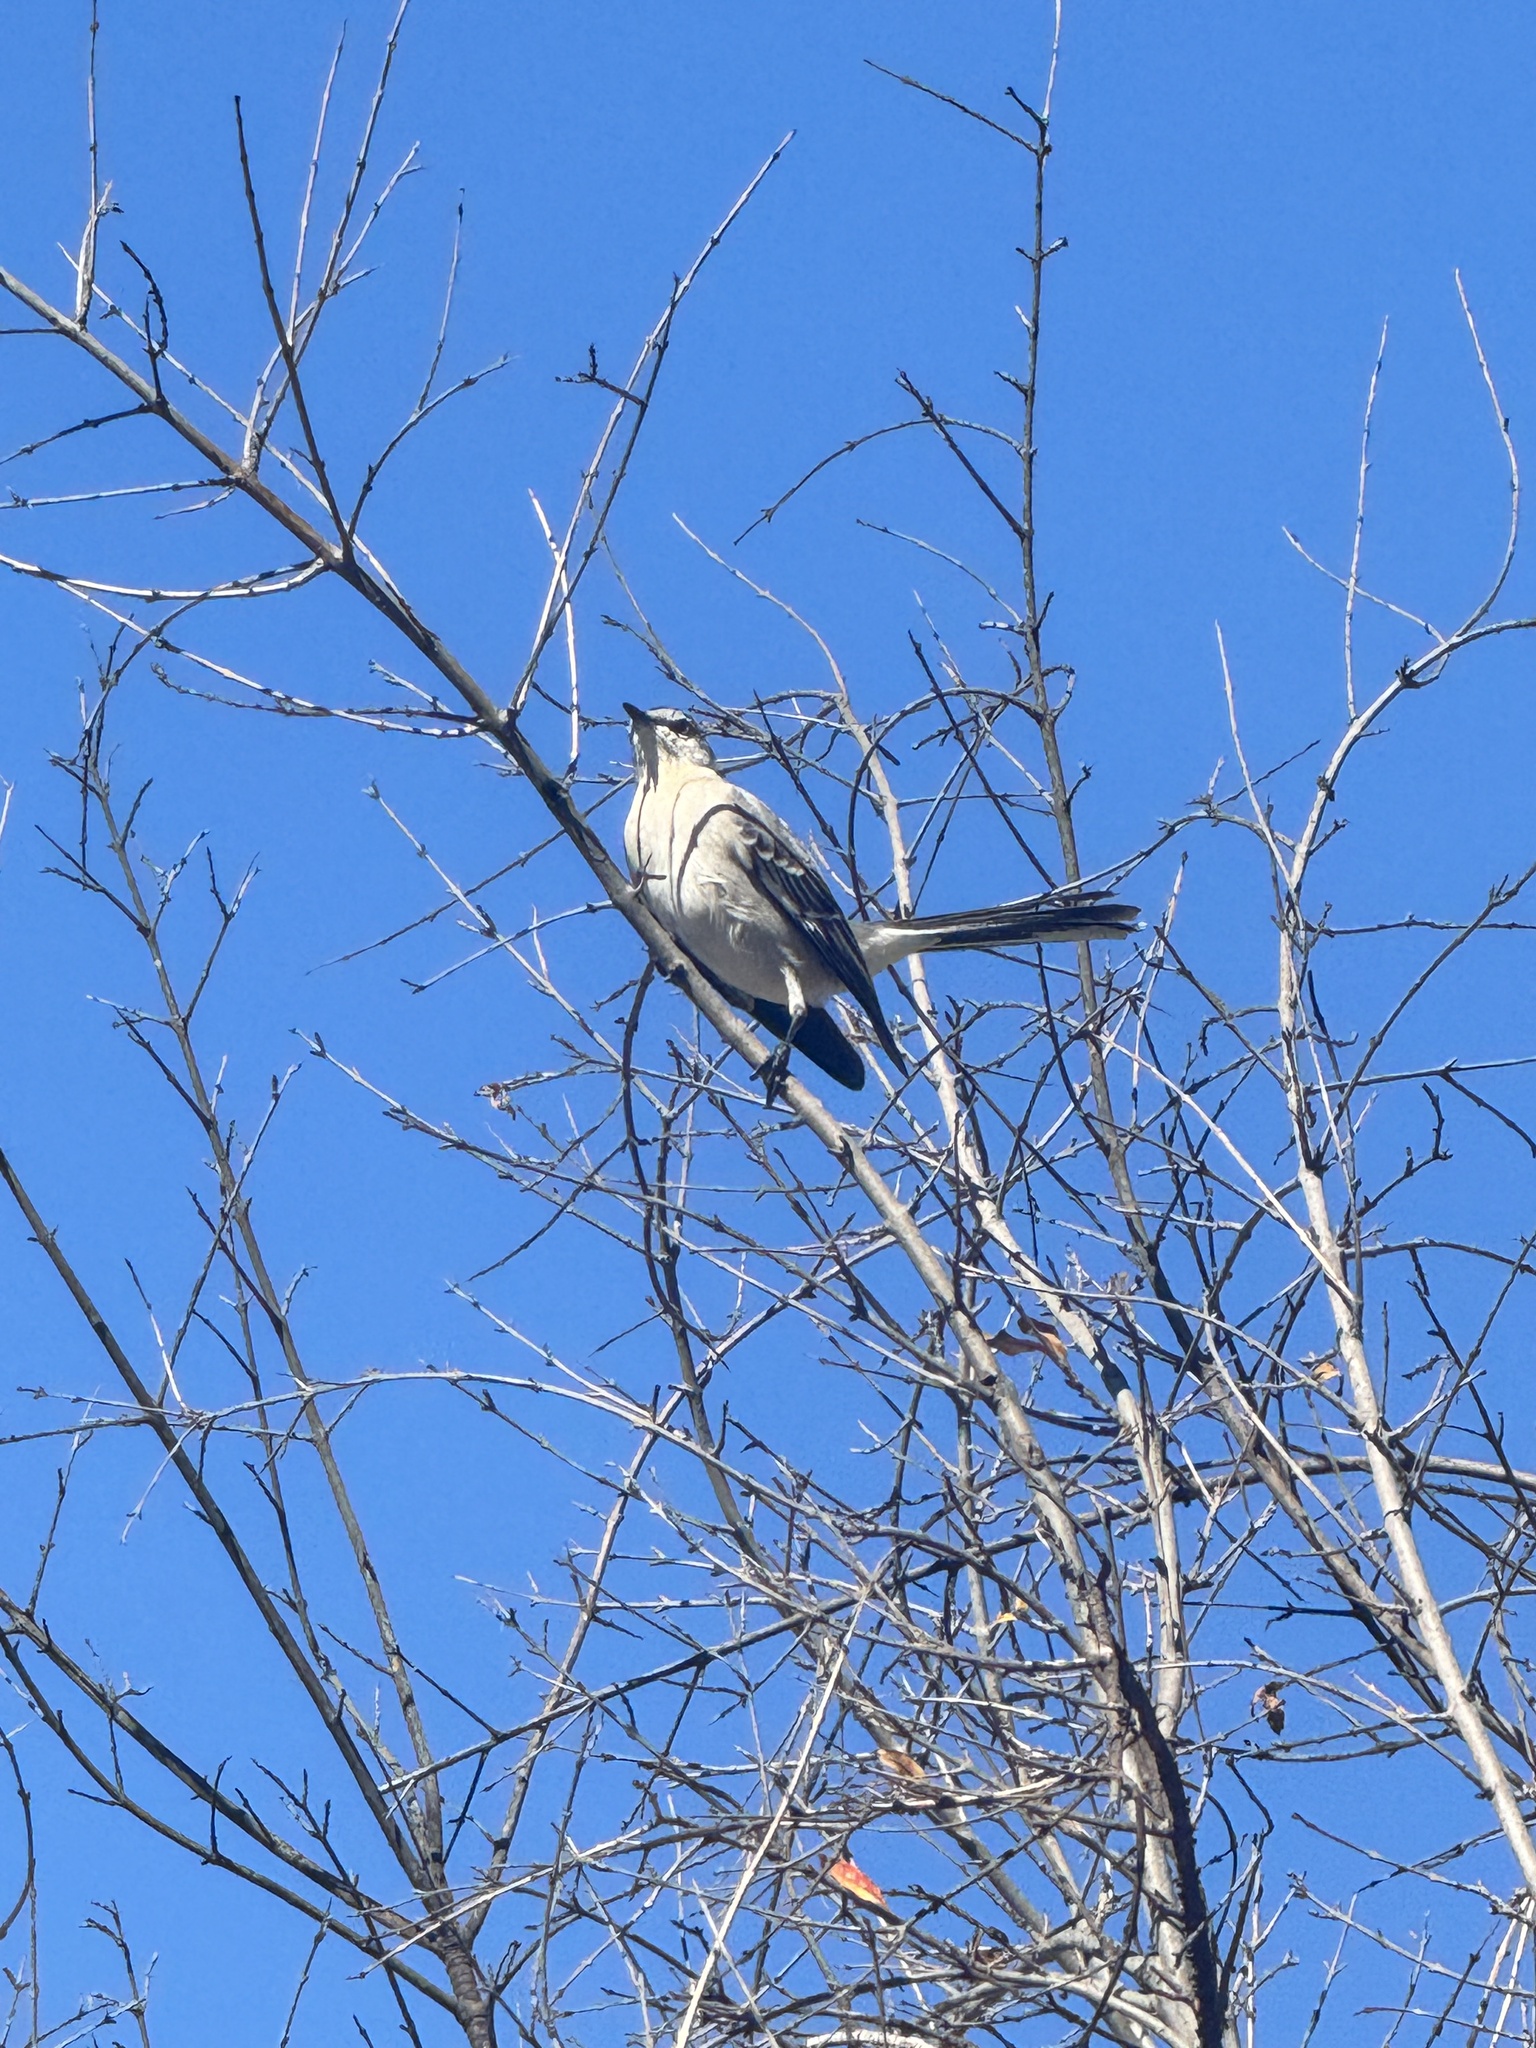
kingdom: Animalia
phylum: Chordata
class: Aves
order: Passeriformes
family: Mimidae
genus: Mimus
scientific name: Mimus polyglottos
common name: Northern mockingbird
